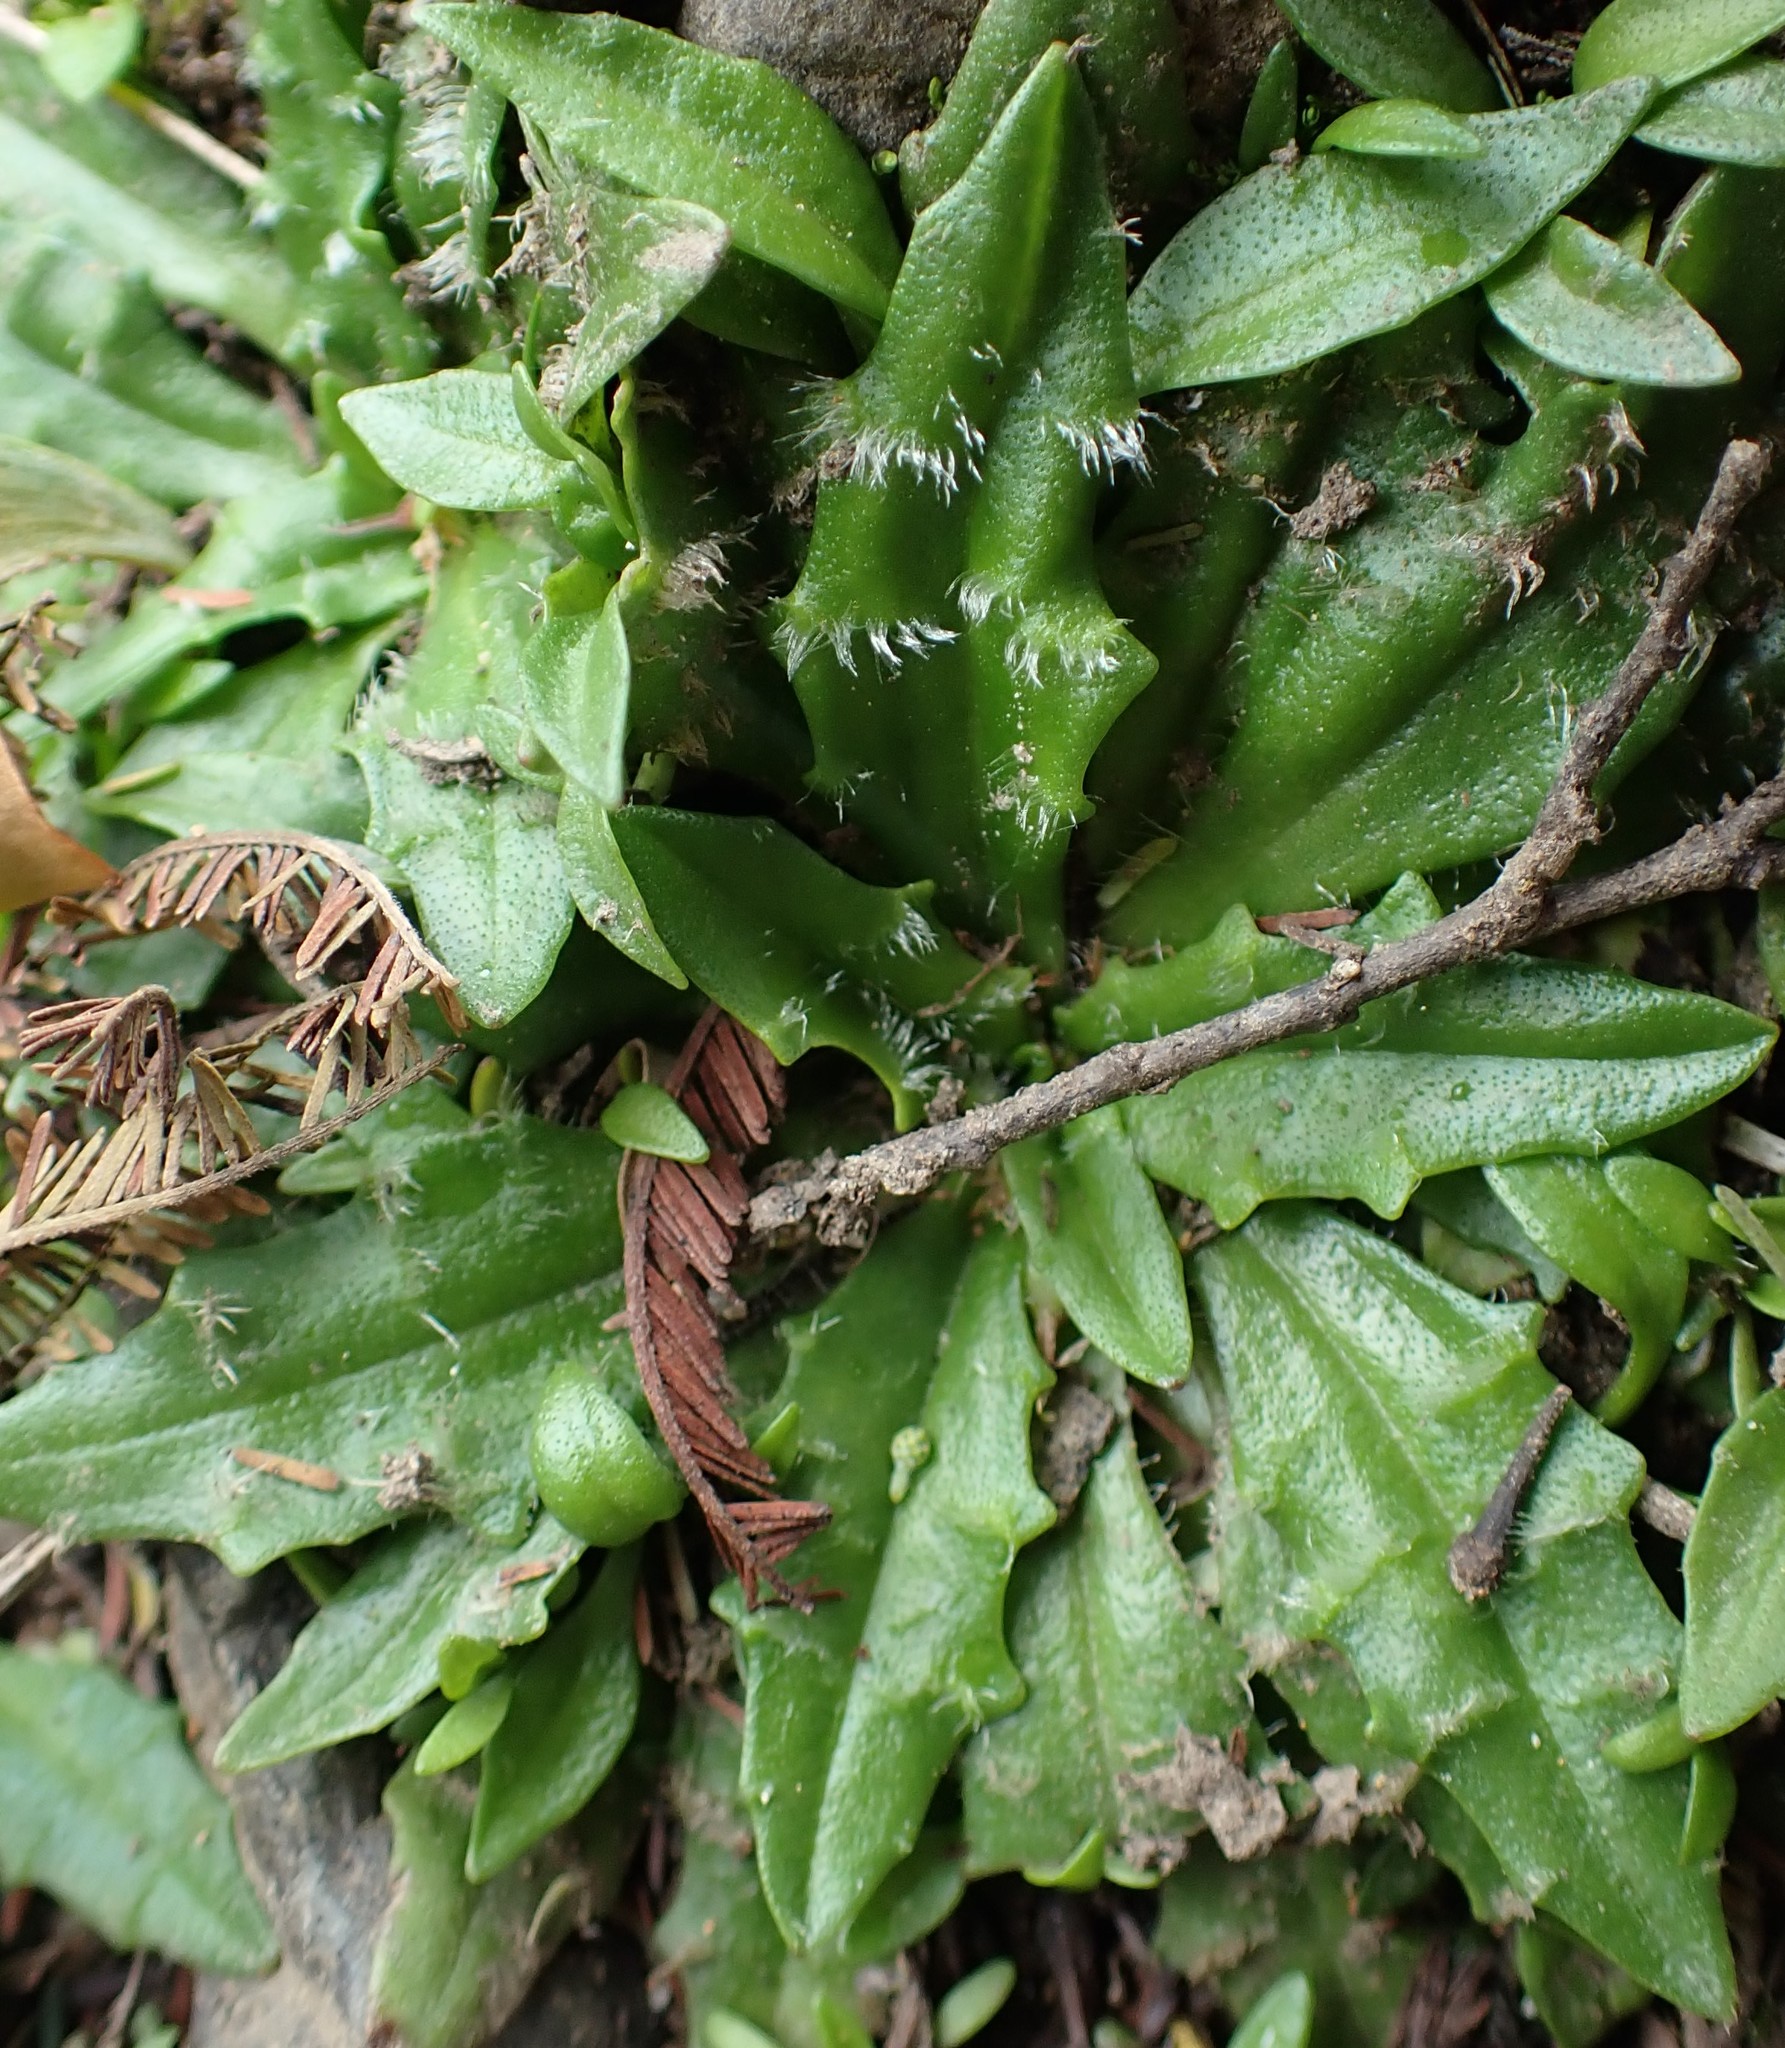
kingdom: Plantae
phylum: Tracheophyta
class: Magnoliopsida
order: Lamiales
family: Plantaginaceae
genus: Plantago
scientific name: Plantago paradoxa
